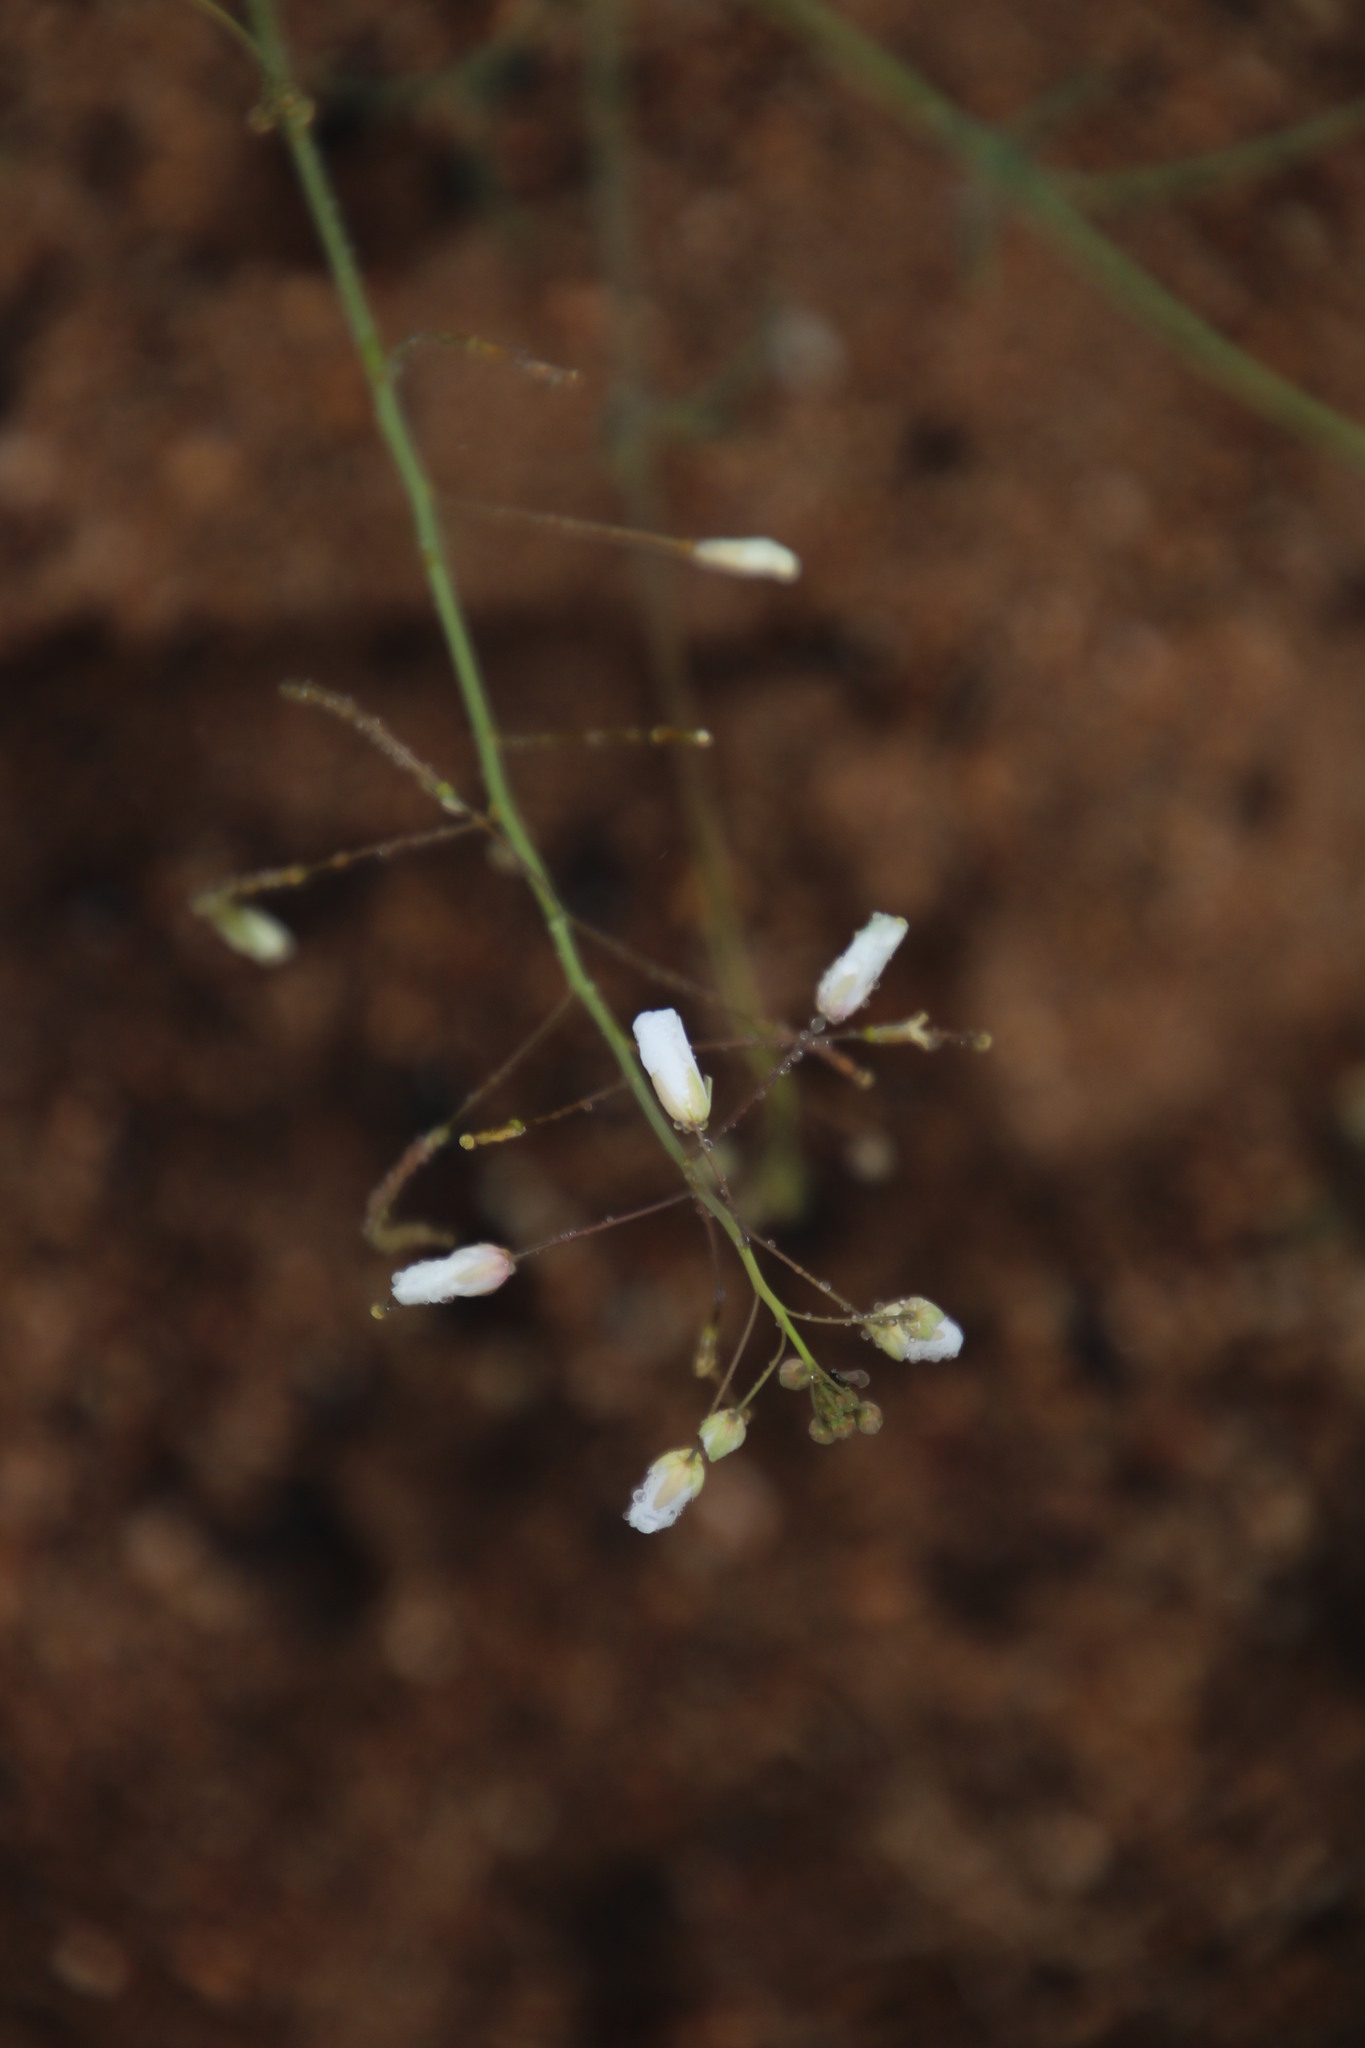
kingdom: Plantae
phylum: Tracheophyta
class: Magnoliopsida
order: Brassicales
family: Brassicaceae
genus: Heliophila
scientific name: Heliophila seselifolia
